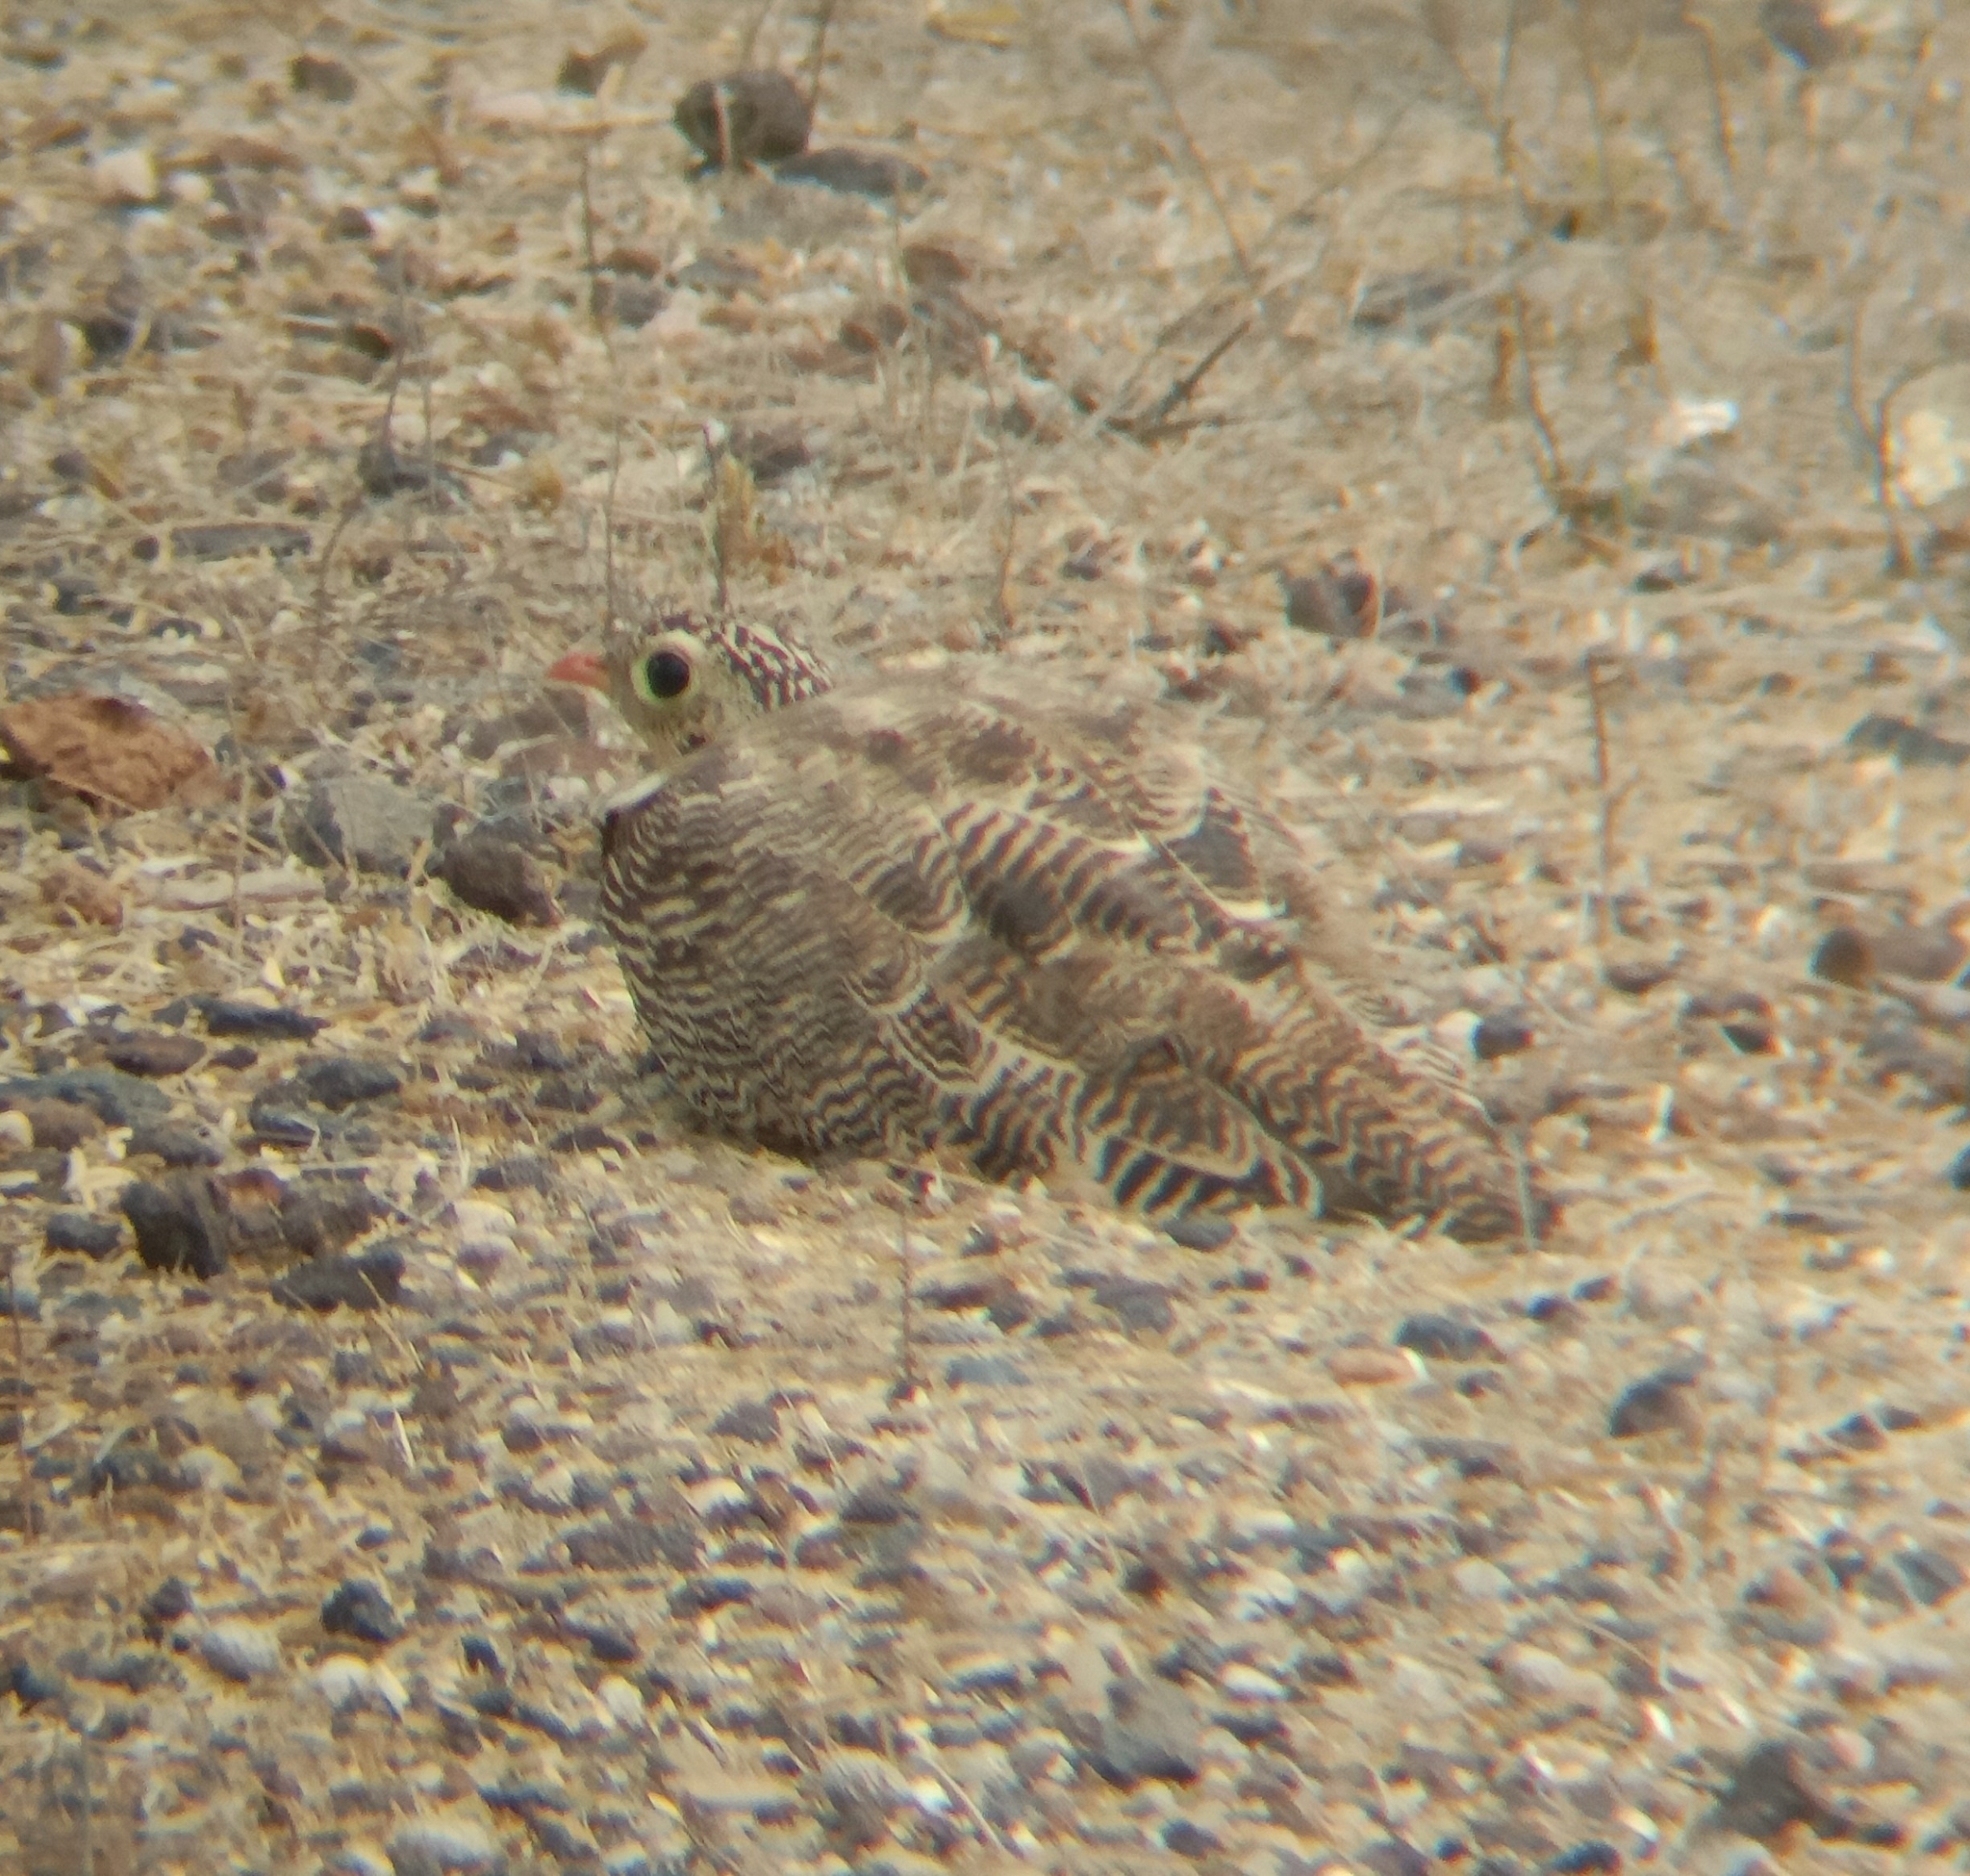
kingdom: Animalia
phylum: Chordata
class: Aves
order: Pteroclidiformes
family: Pteroclididae
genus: Pterocles
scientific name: Pterocles indicus
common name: Painted sandgrouse
